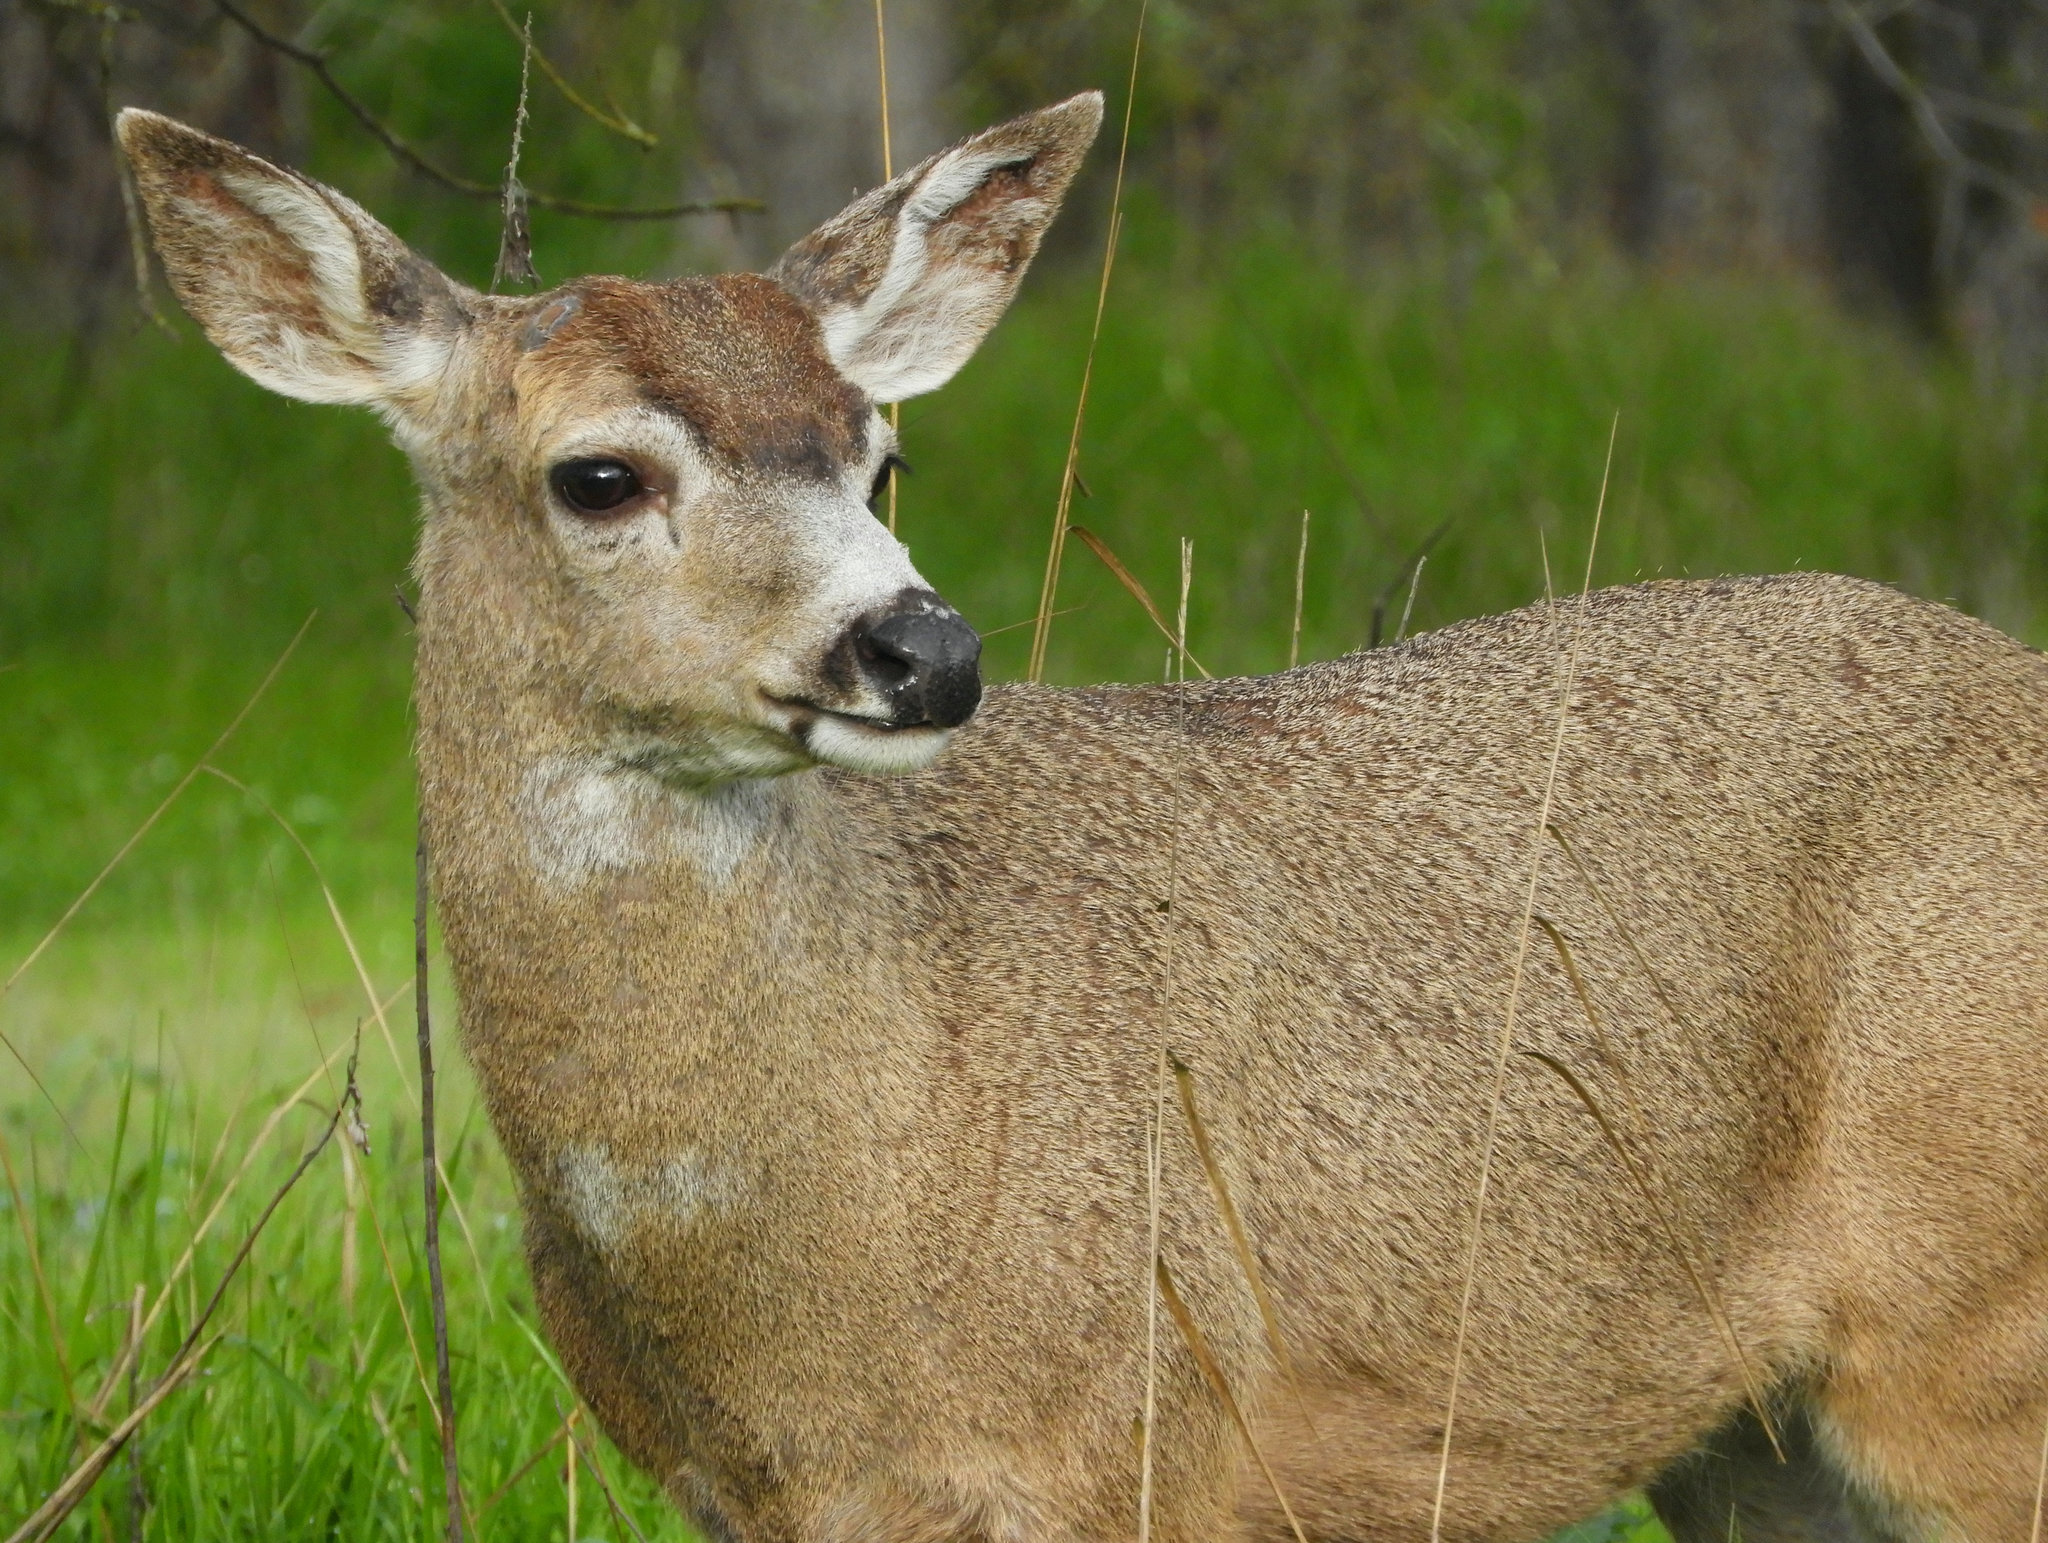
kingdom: Animalia
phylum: Chordata
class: Mammalia
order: Artiodactyla
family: Cervidae
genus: Odocoileus
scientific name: Odocoileus hemionus
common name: Mule deer
